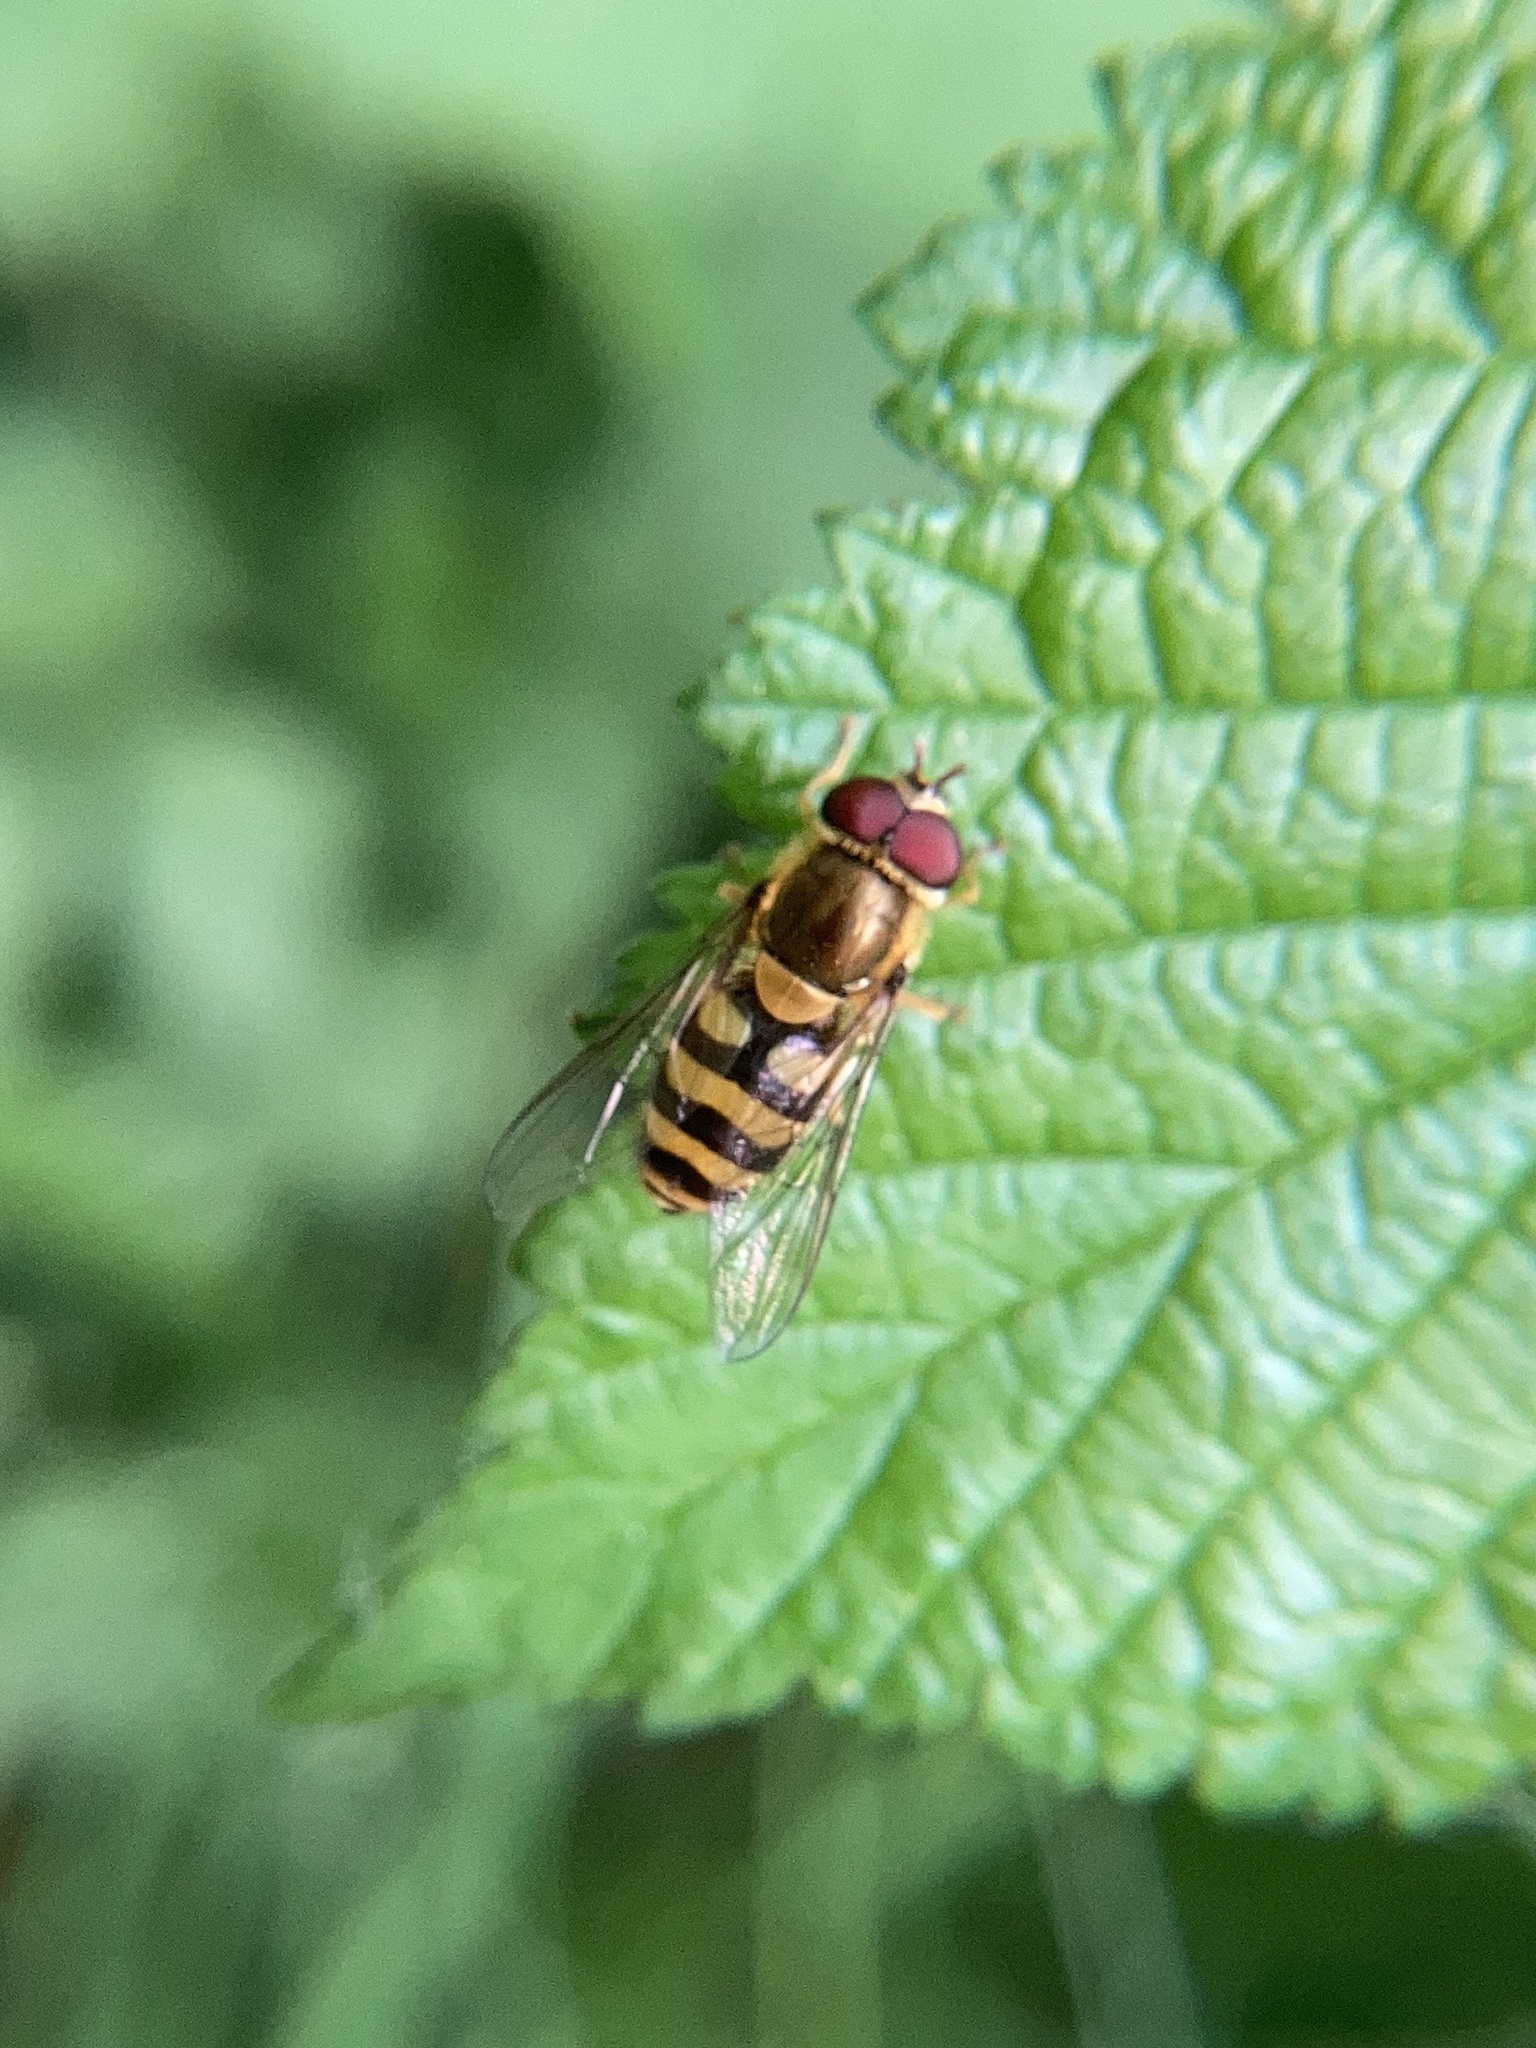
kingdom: Animalia
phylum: Arthropoda
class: Insecta
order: Diptera
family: Syrphidae
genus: Syrphus
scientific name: Syrphus
